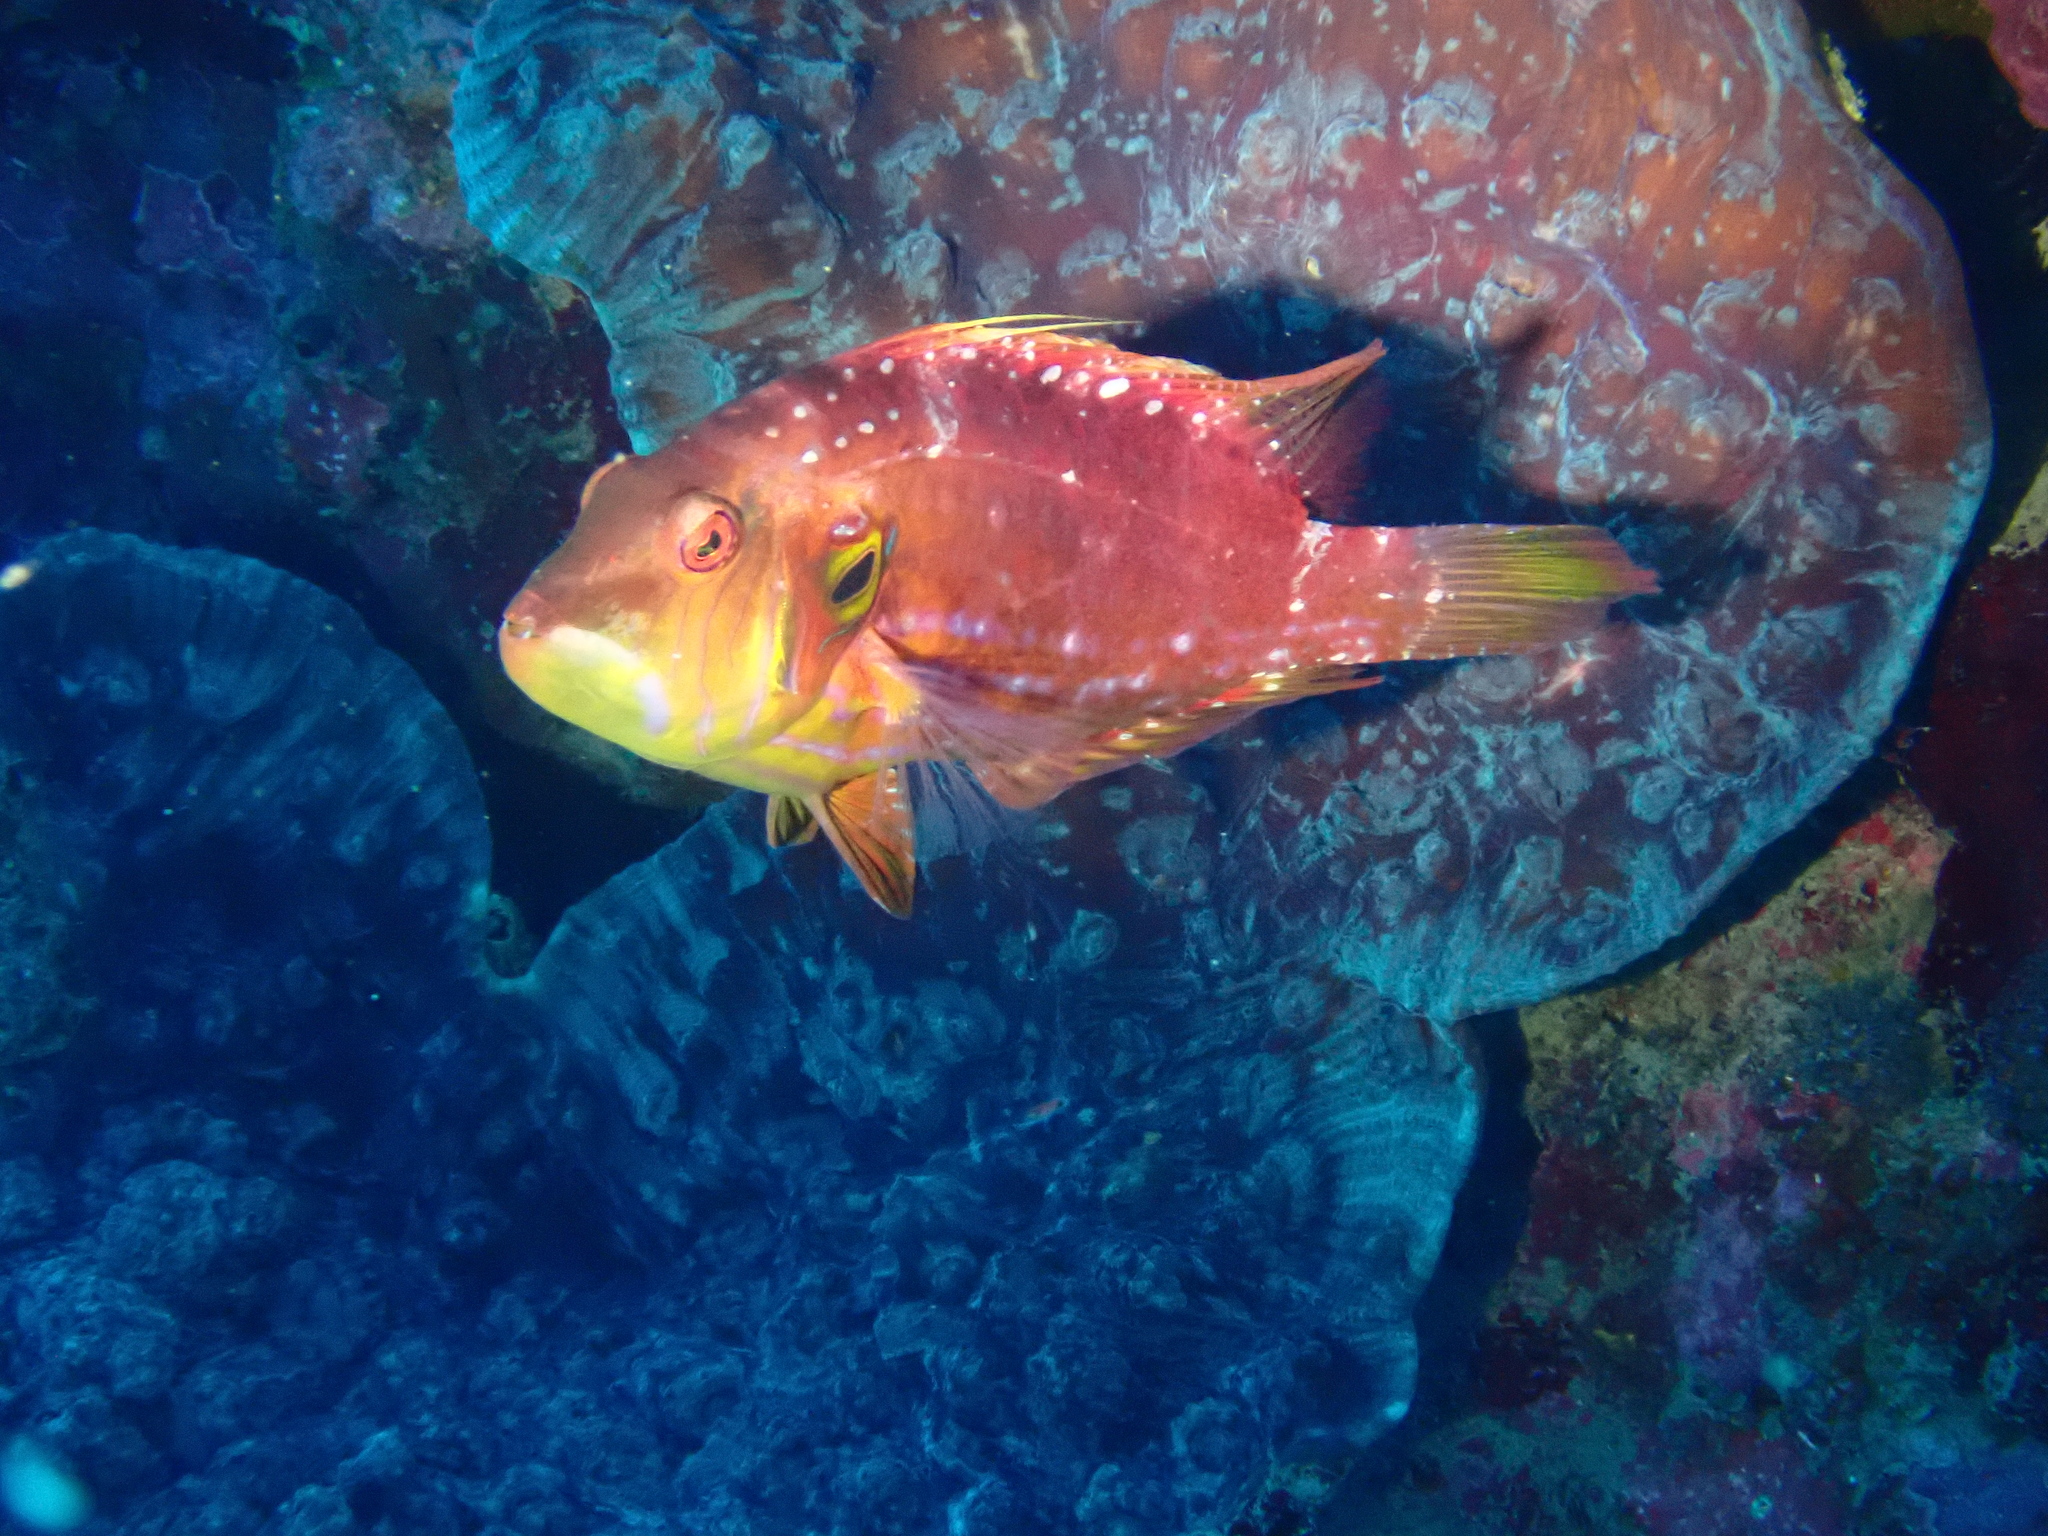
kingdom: Animalia
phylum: Chordata
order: Perciformes
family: Labridae
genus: Pteragogus
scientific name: Pteragogus enneacanthus
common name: Cockerel wrasse
